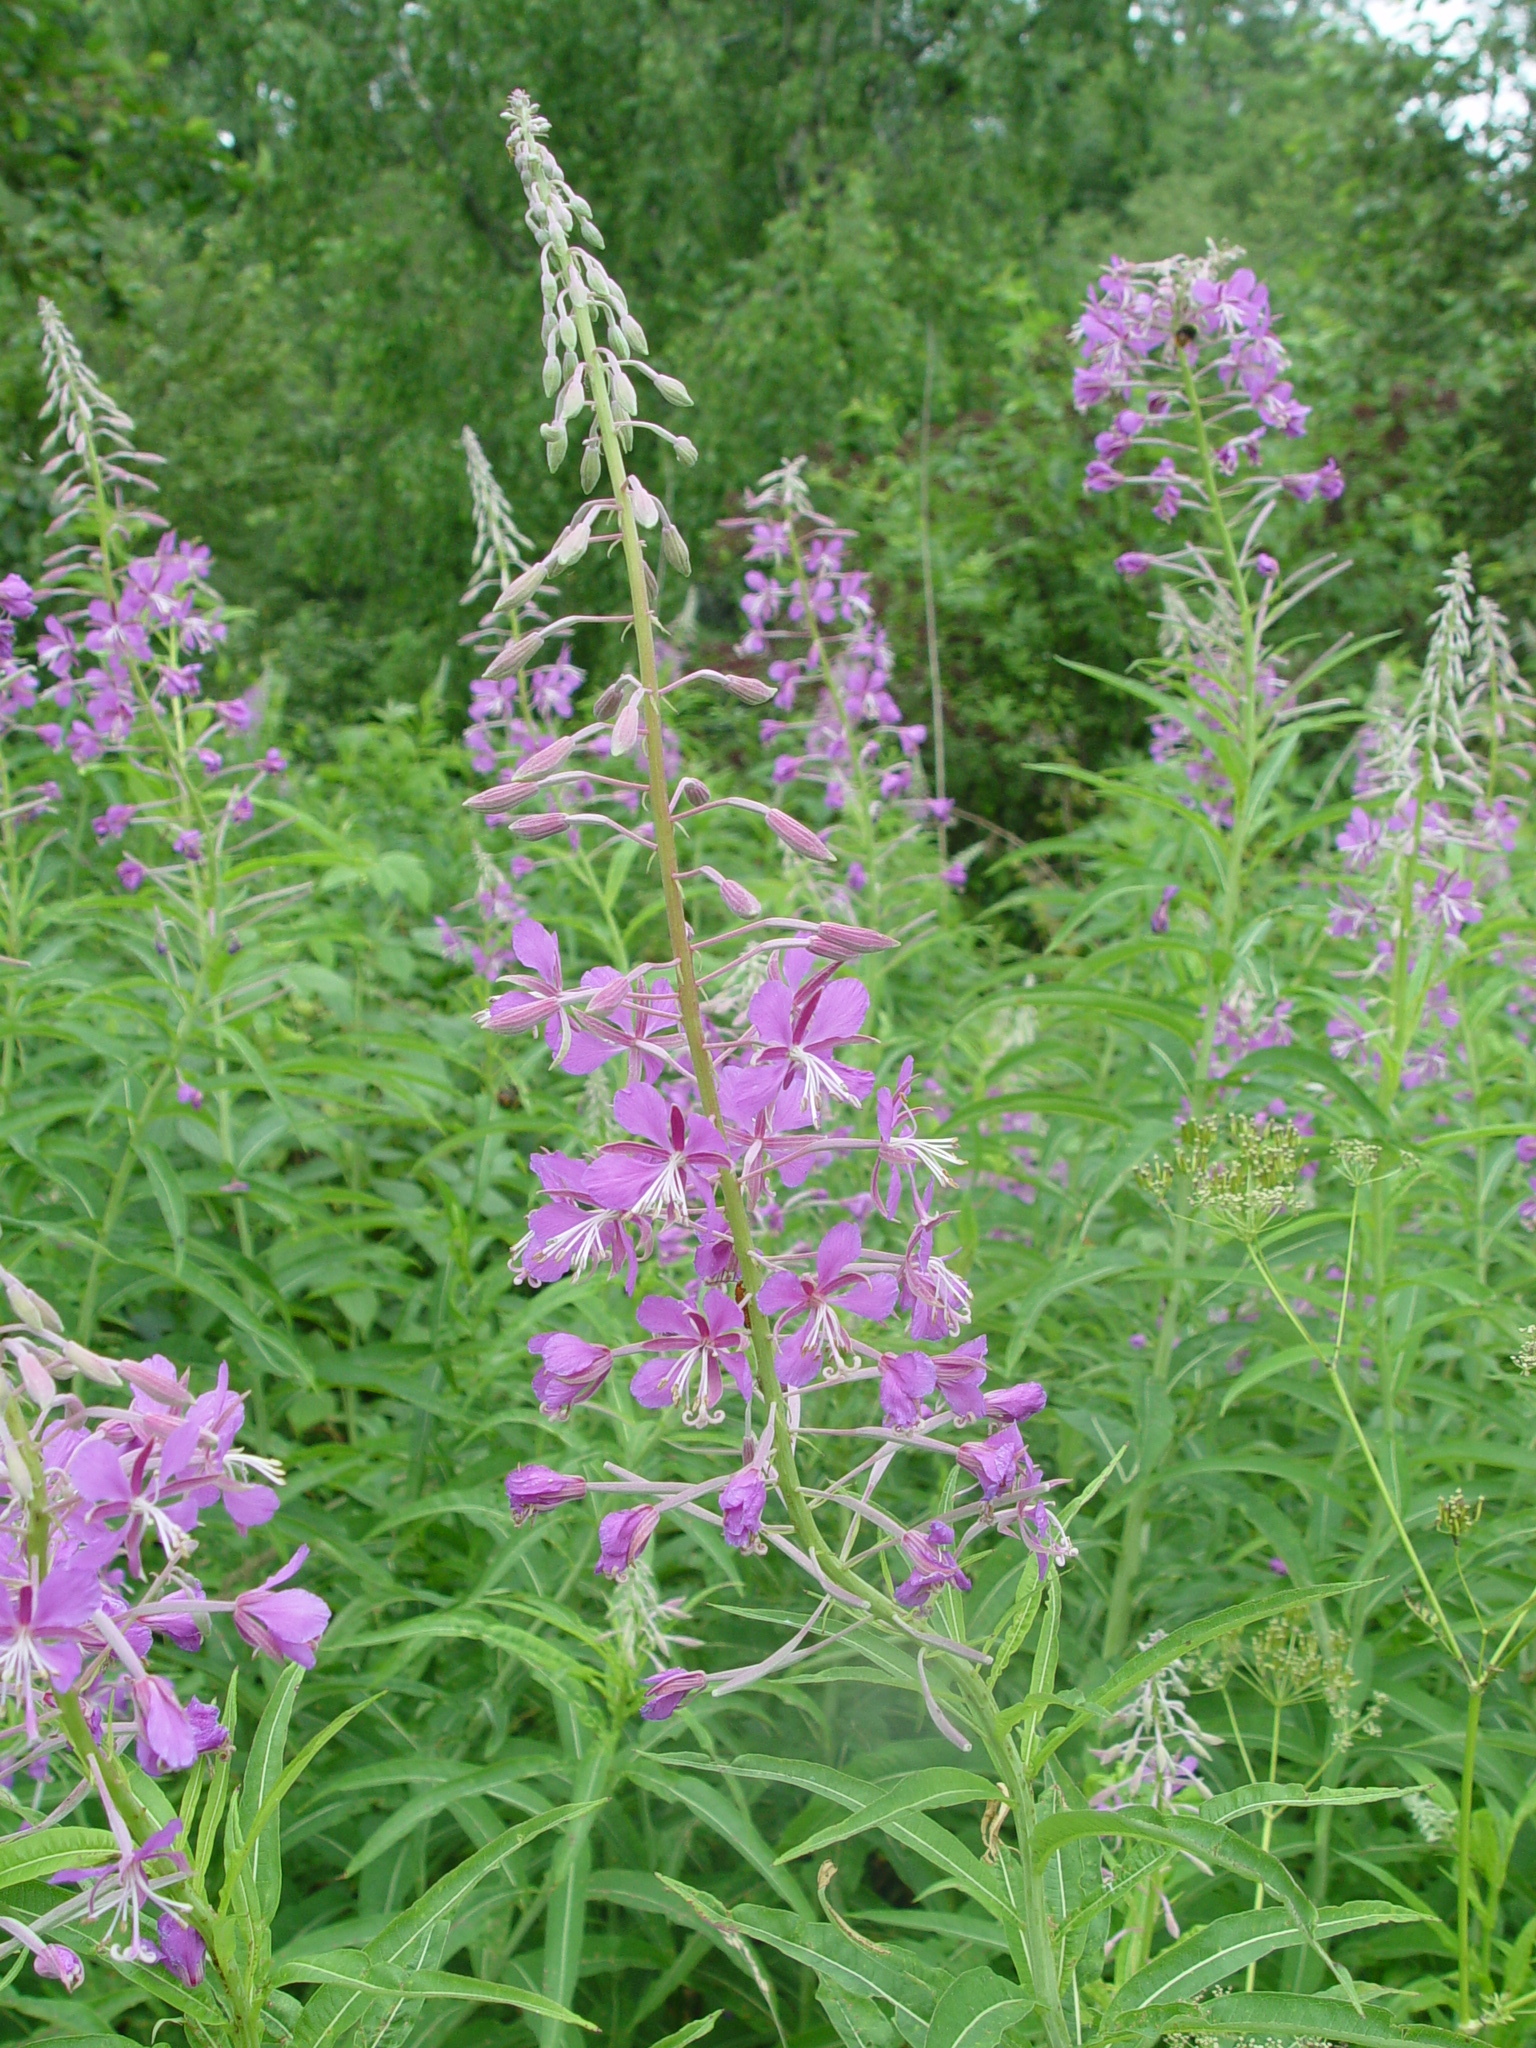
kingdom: Plantae
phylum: Tracheophyta
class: Magnoliopsida
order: Myrtales
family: Onagraceae
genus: Chamaenerion
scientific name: Chamaenerion angustifolium
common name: Fireweed
